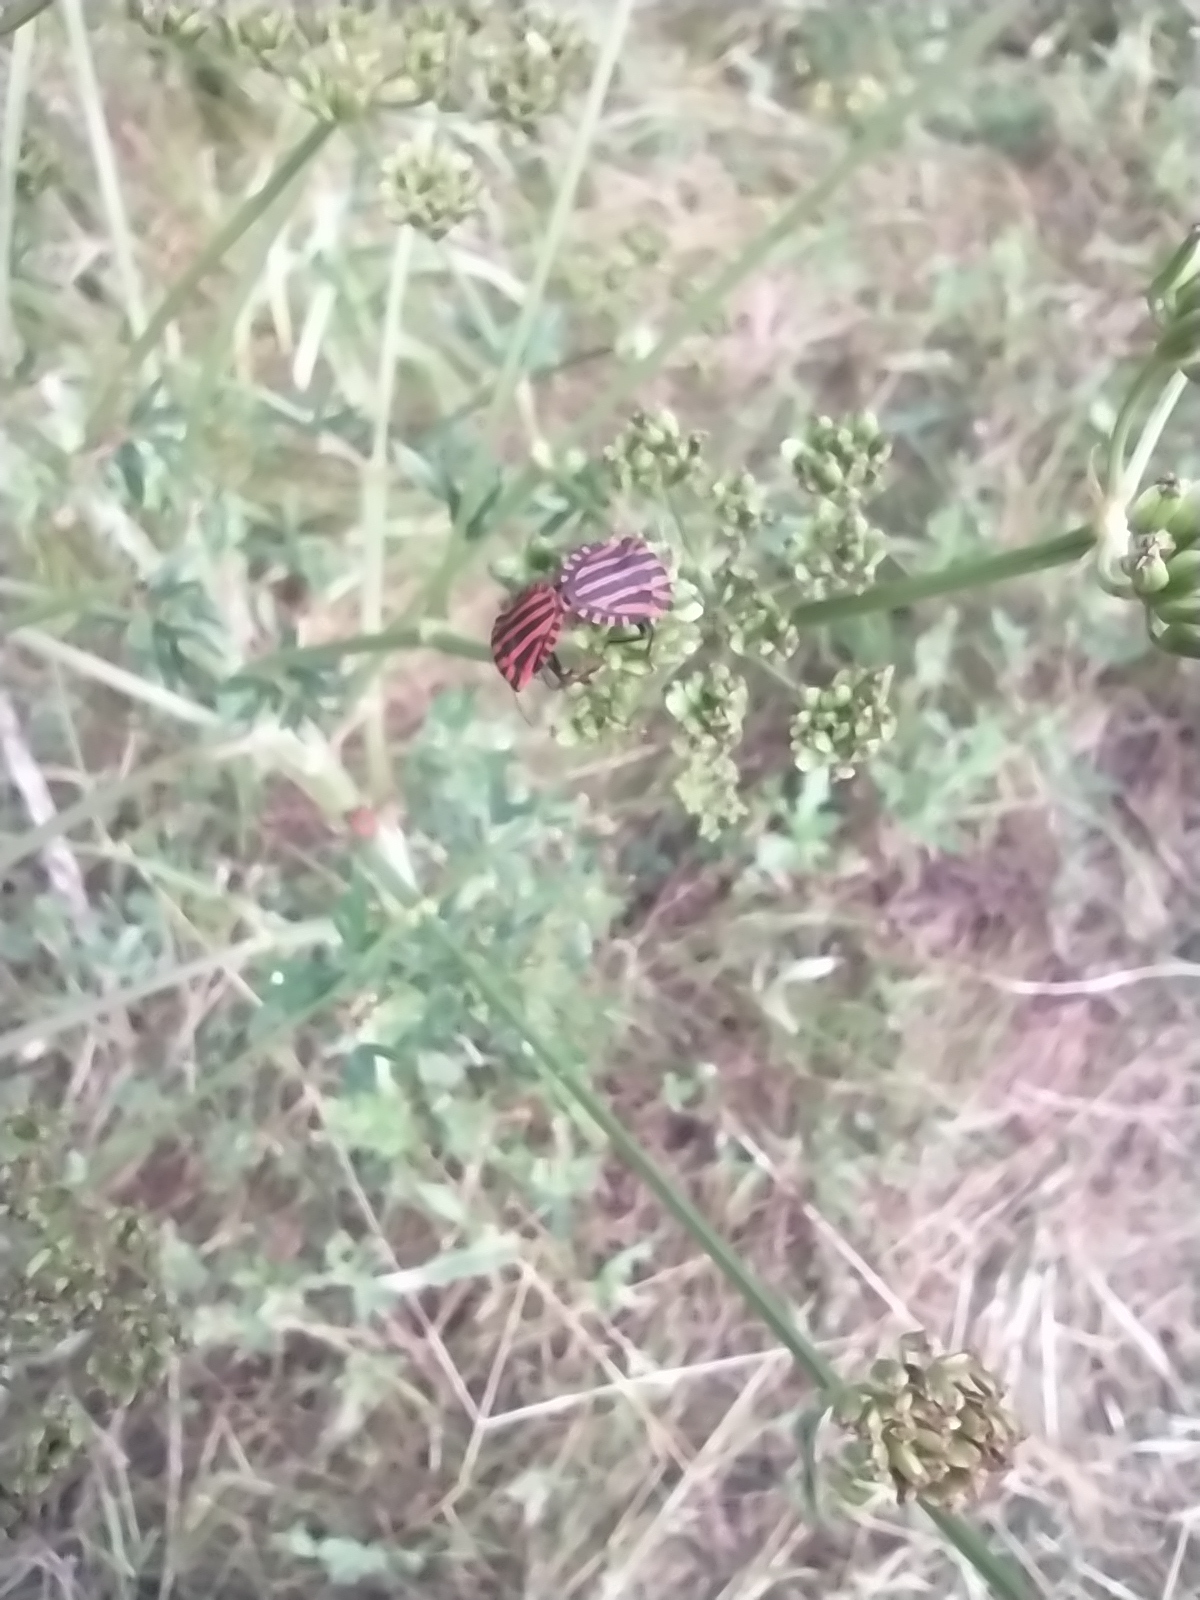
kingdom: Animalia
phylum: Arthropoda
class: Insecta
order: Hemiptera
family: Pentatomidae
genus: Graphosoma
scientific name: Graphosoma italicum
